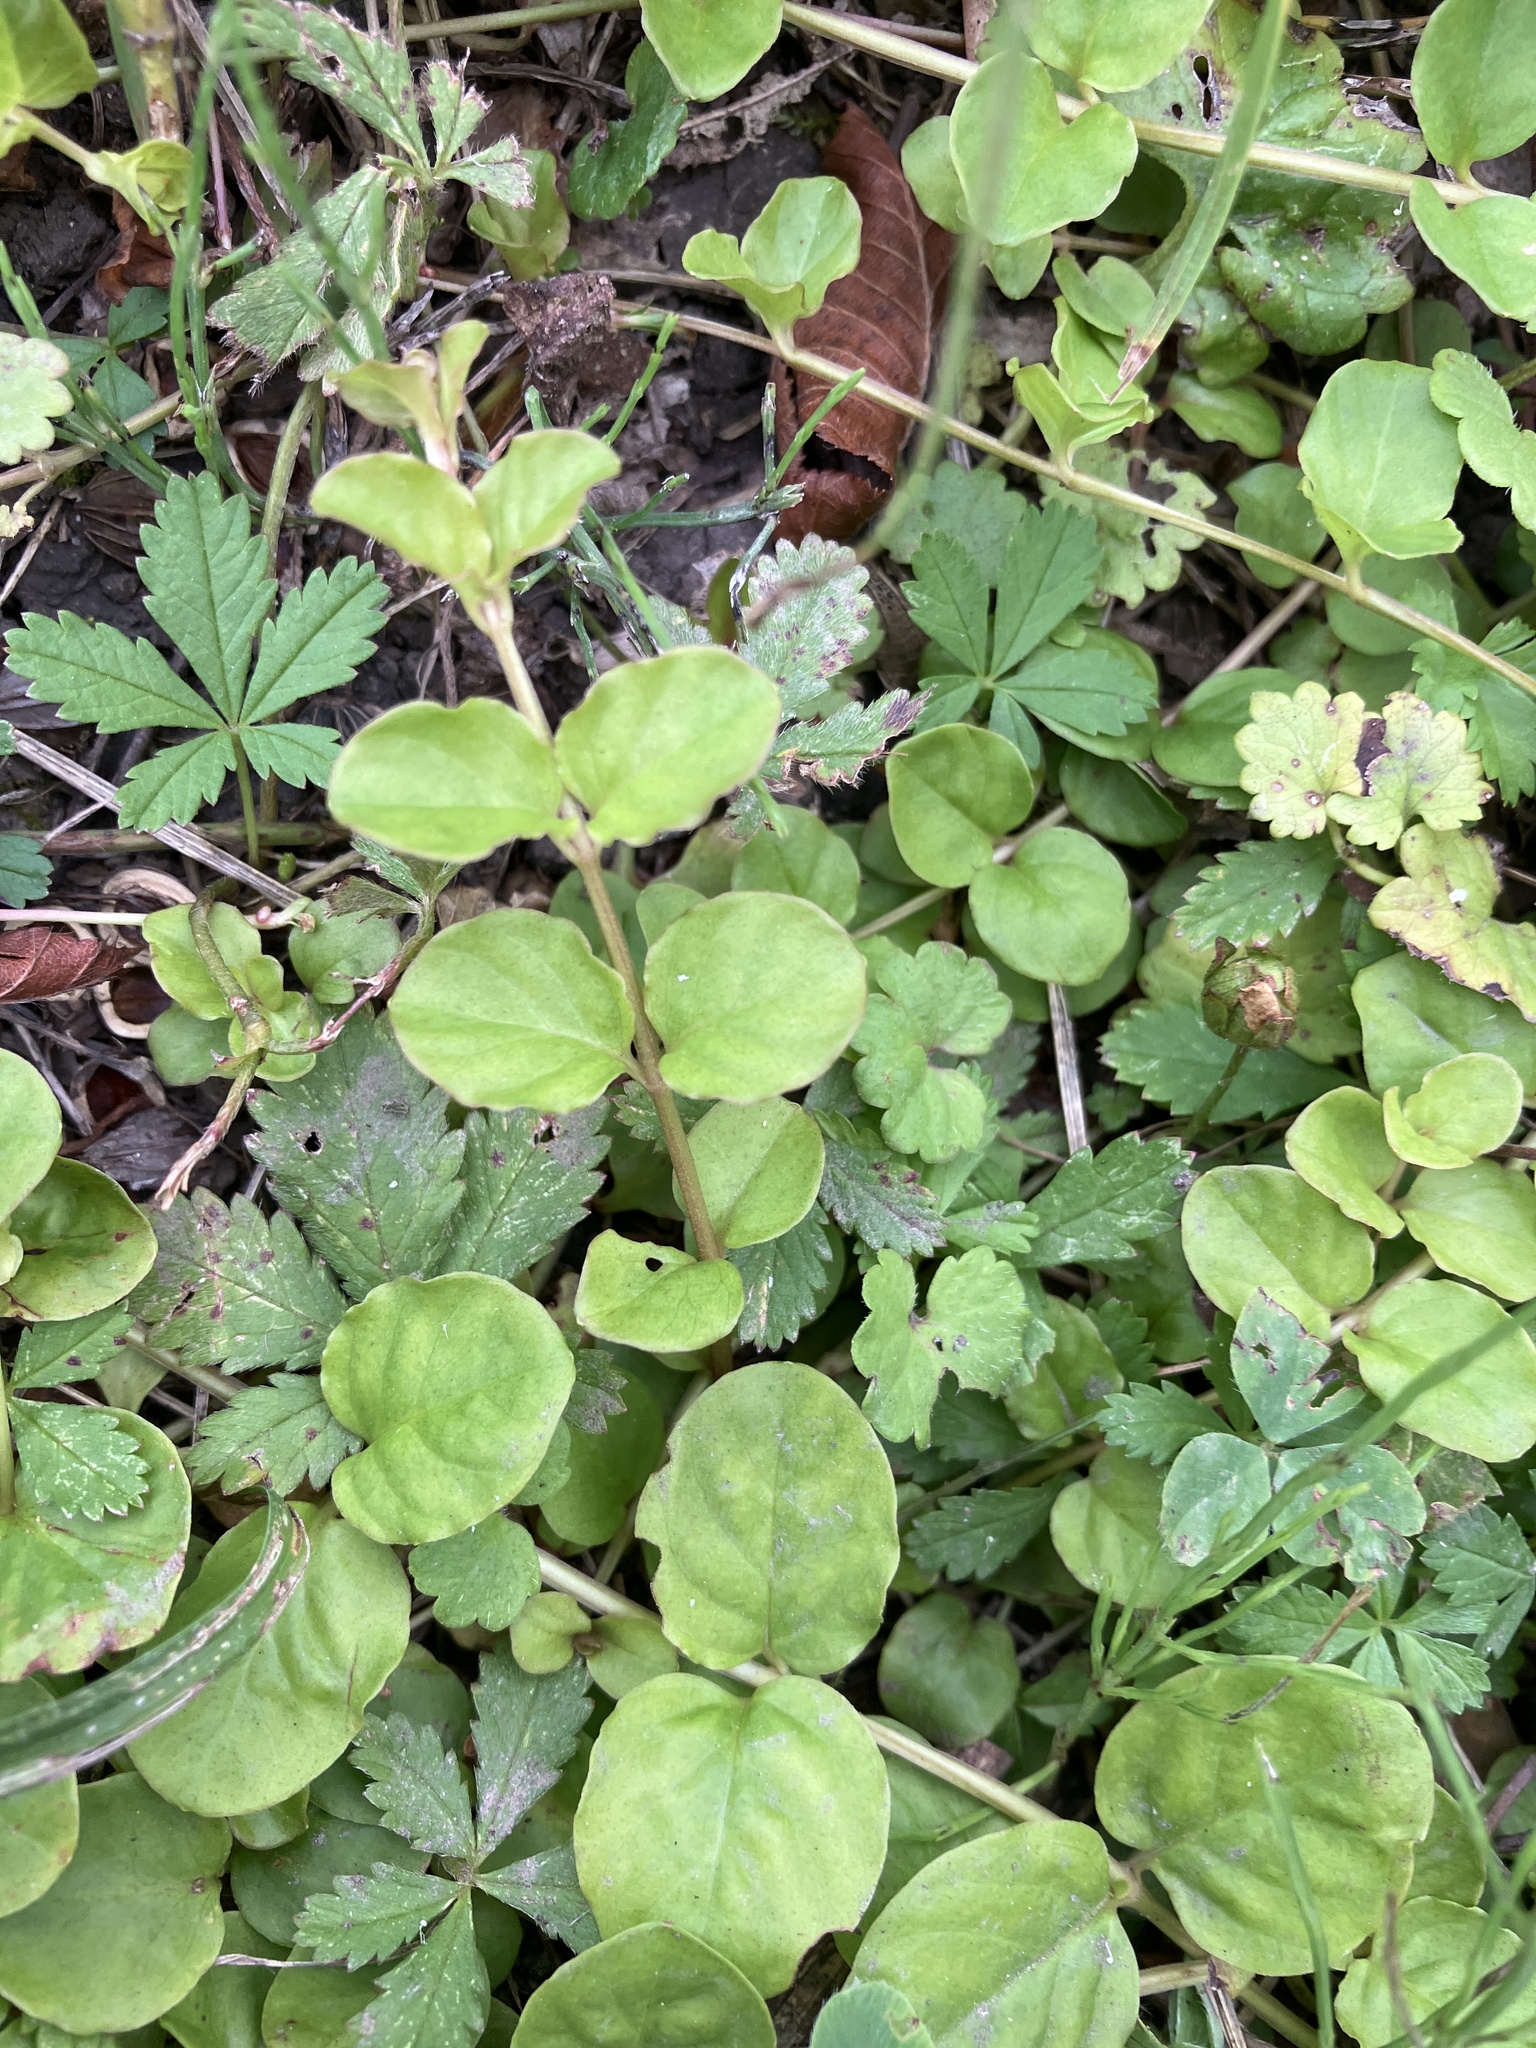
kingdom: Plantae
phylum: Tracheophyta
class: Magnoliopsida
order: Ericales
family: Primulaceae
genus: Lysimachia
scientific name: Lysimachia nummularia
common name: Moneywort
